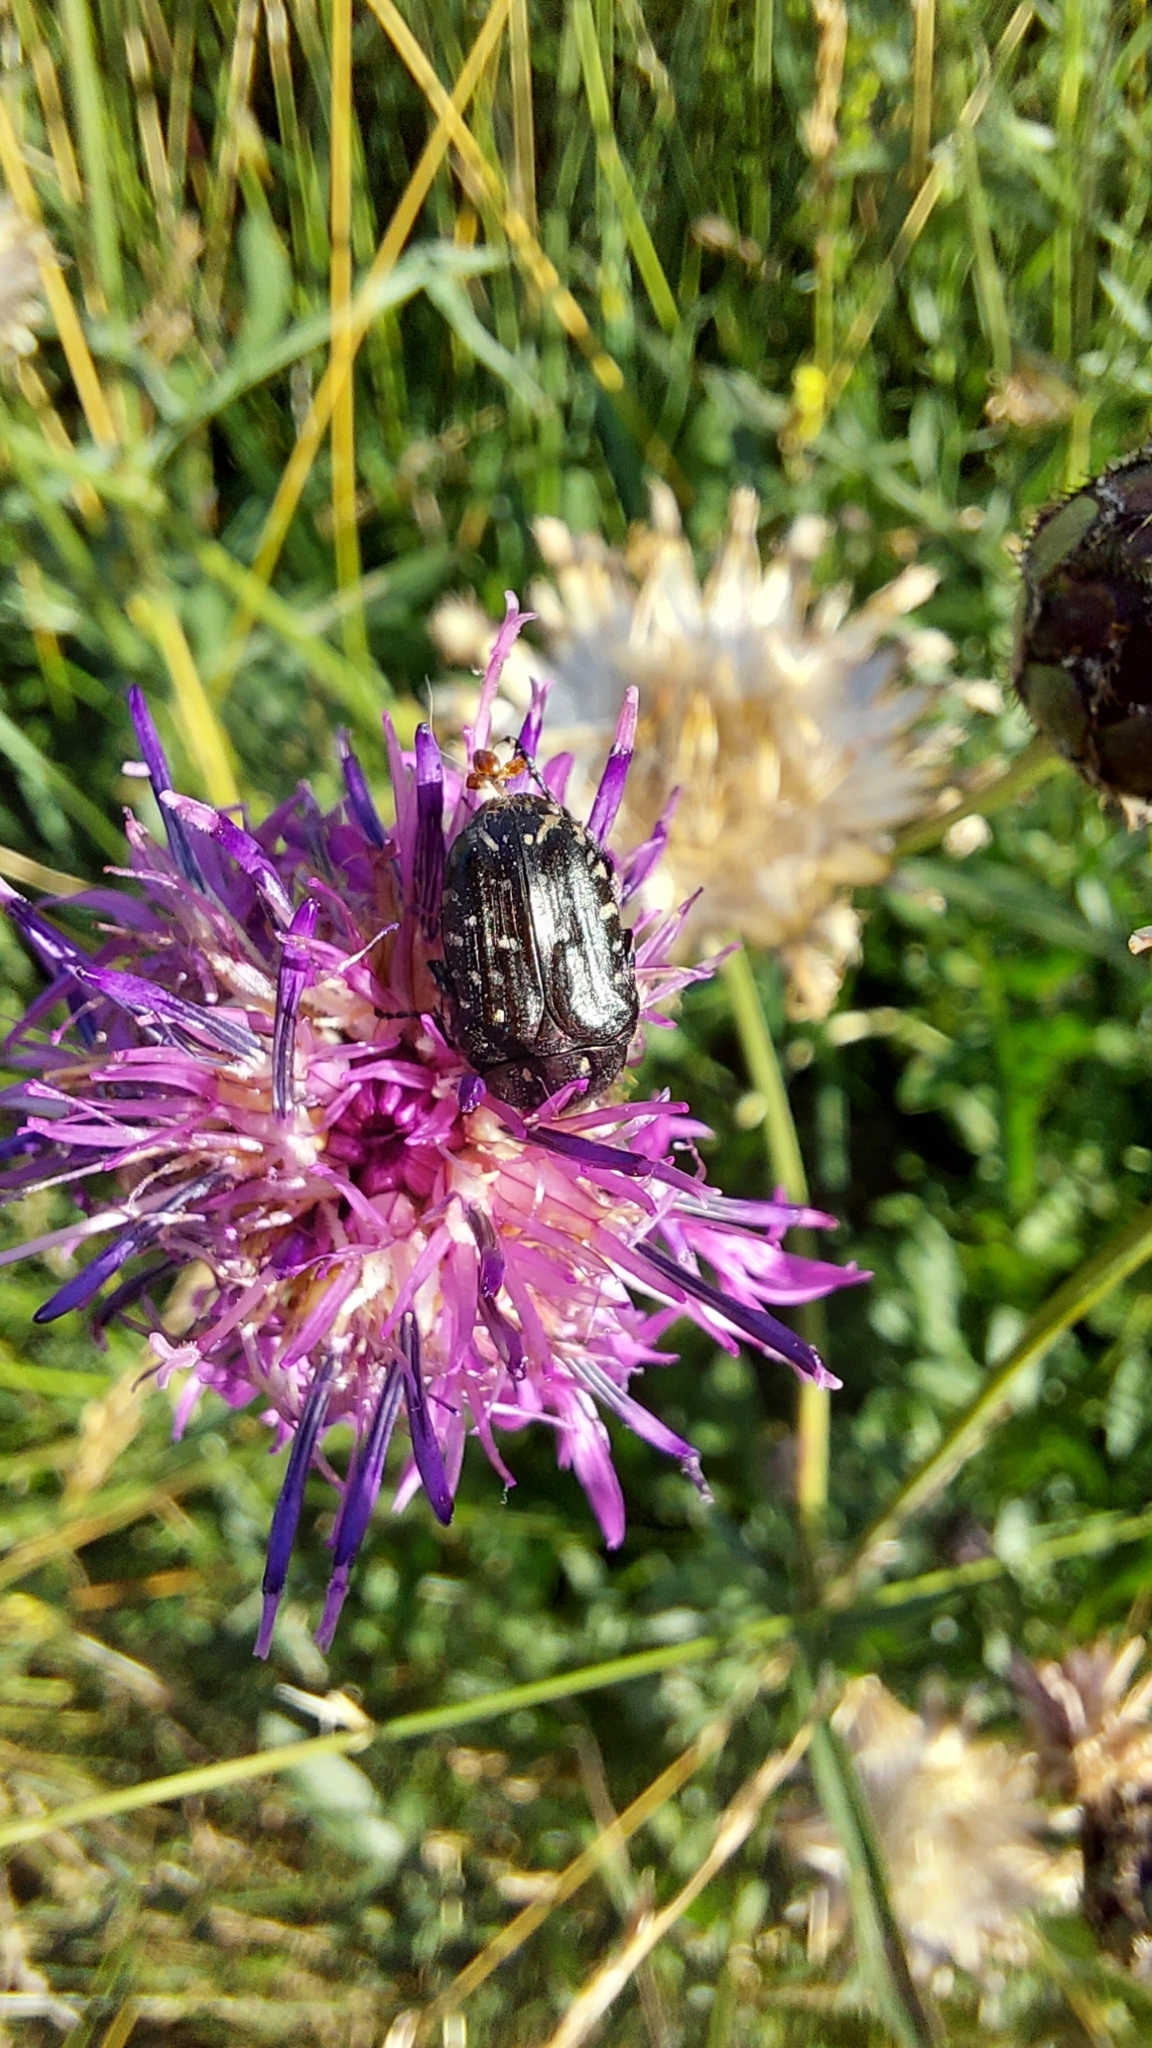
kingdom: Animalia
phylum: Arthropoda
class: Insecta
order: Coleoptera
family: Scarabaeidae
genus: Oxythyrea
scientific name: Oxythyrea funesta
